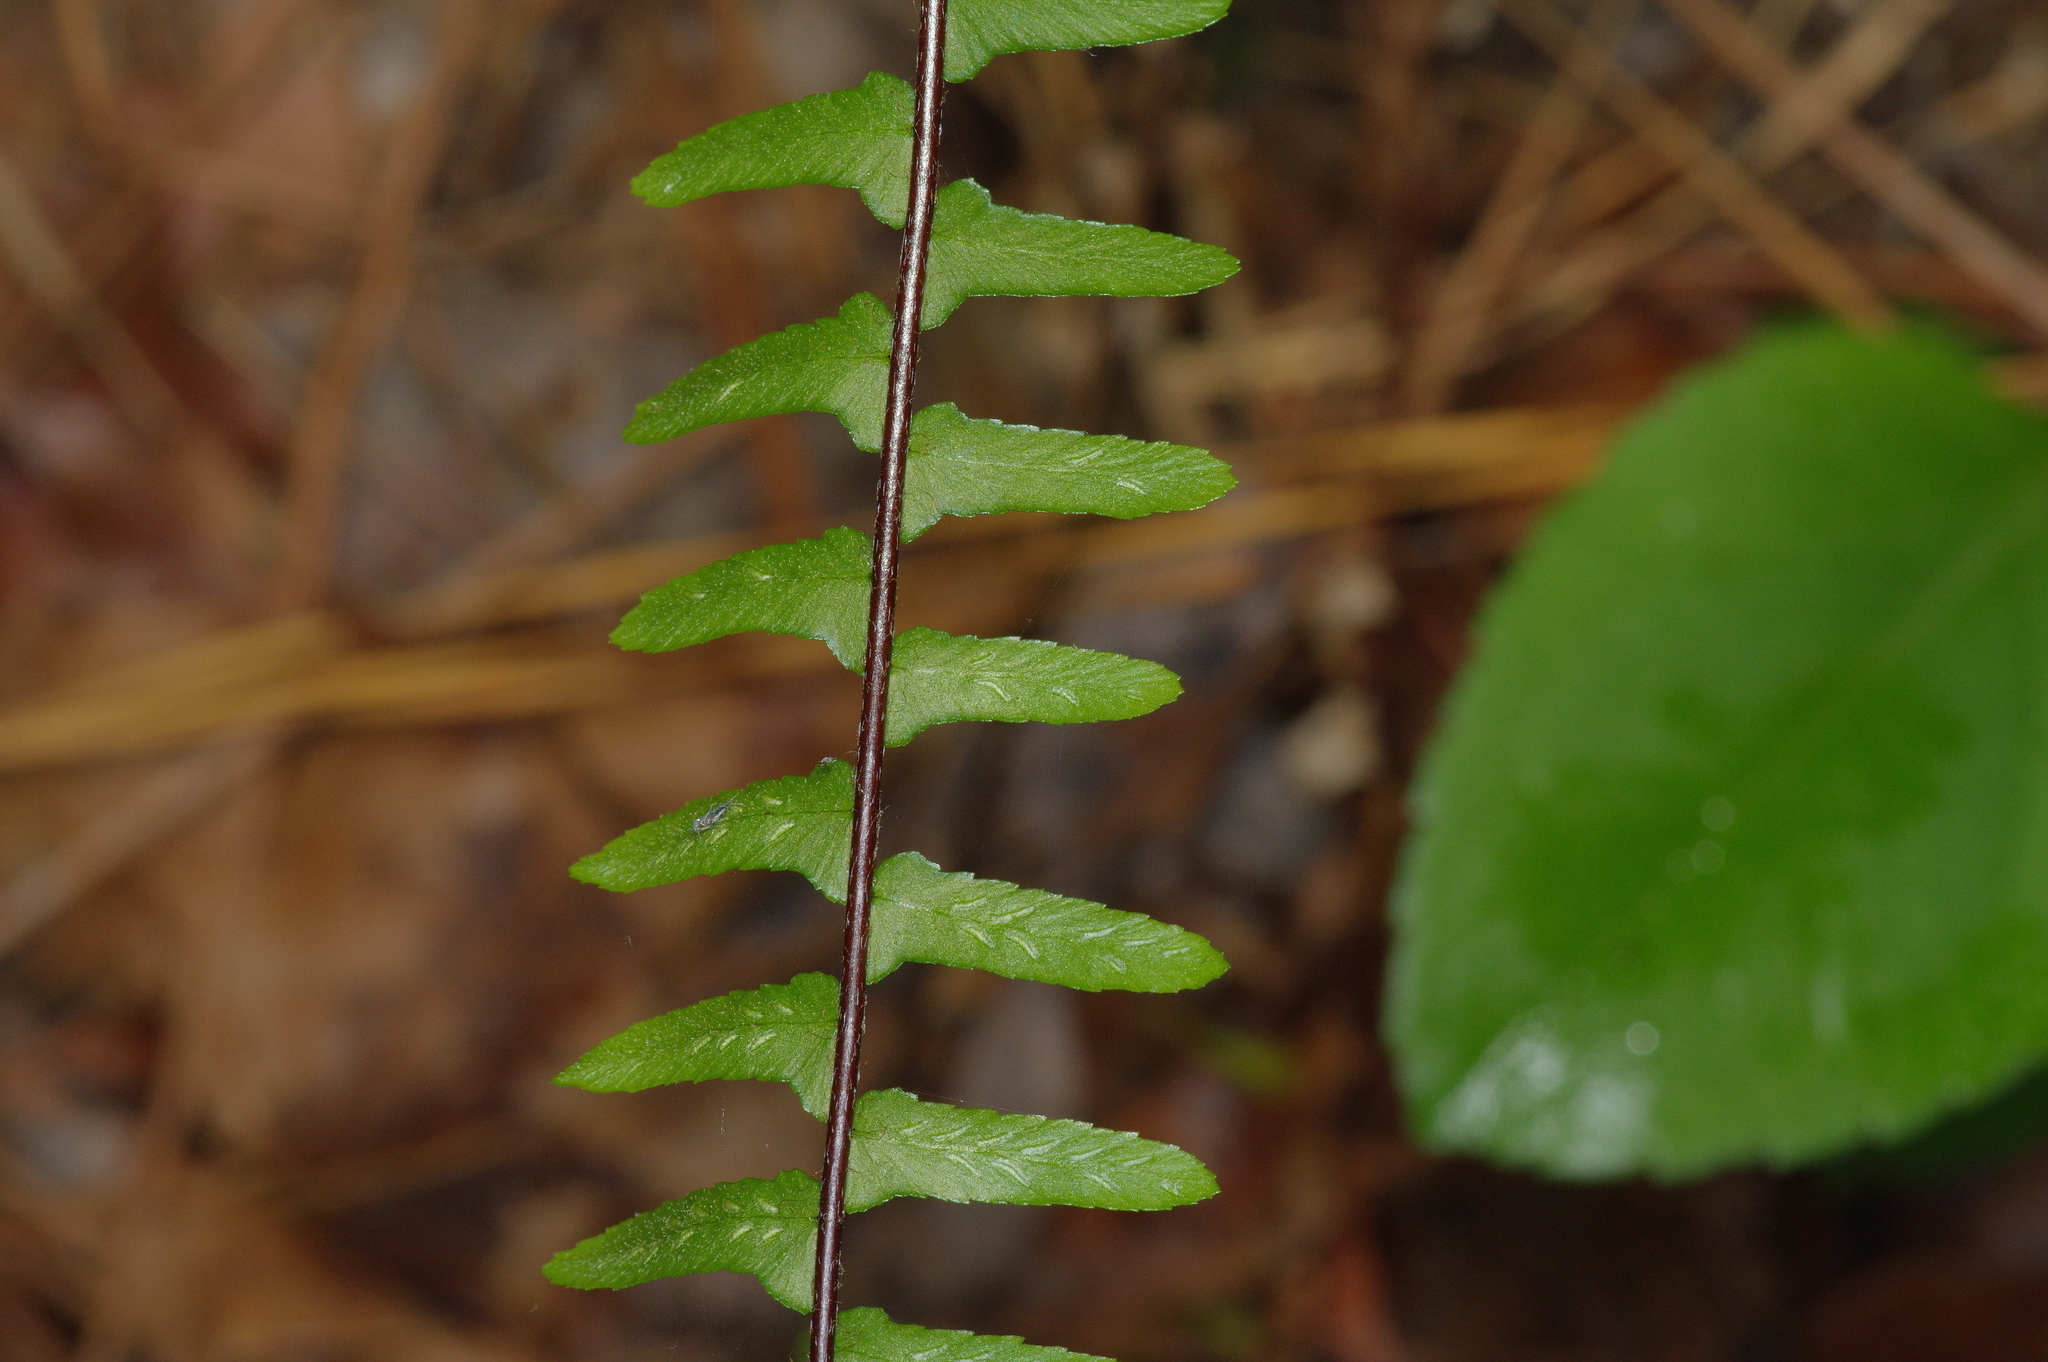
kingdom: Plantae
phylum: Tracheophyta
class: Polypodiopsida
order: Polypodiales
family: Aspleniaceae
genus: Asplenium
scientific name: Asplenium platyneuron
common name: Ebony spleenwort
